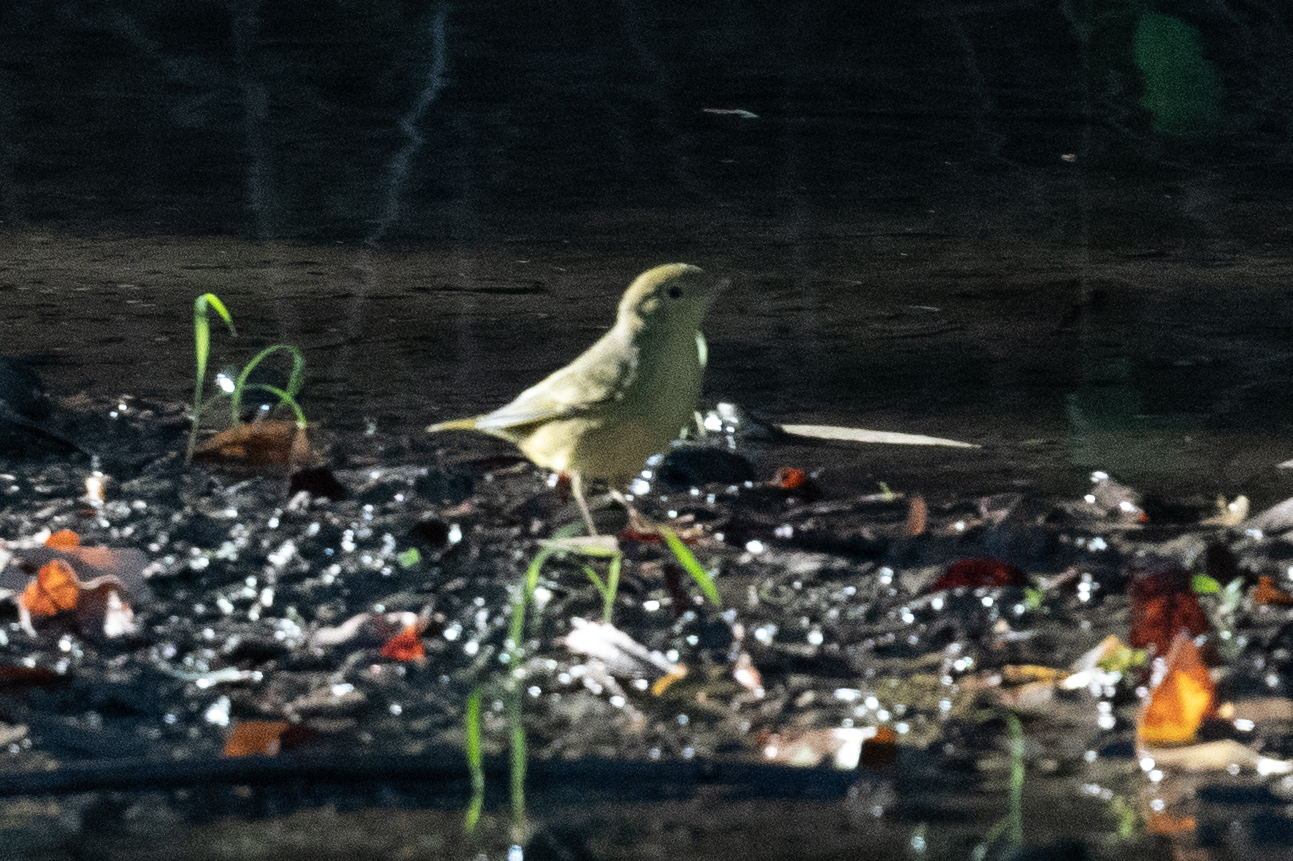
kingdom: Animalia
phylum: Chordata
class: Aves
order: Passeriformes
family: Parulidae
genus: Setophaga
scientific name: Setophaga petechia
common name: Yellow warbler
